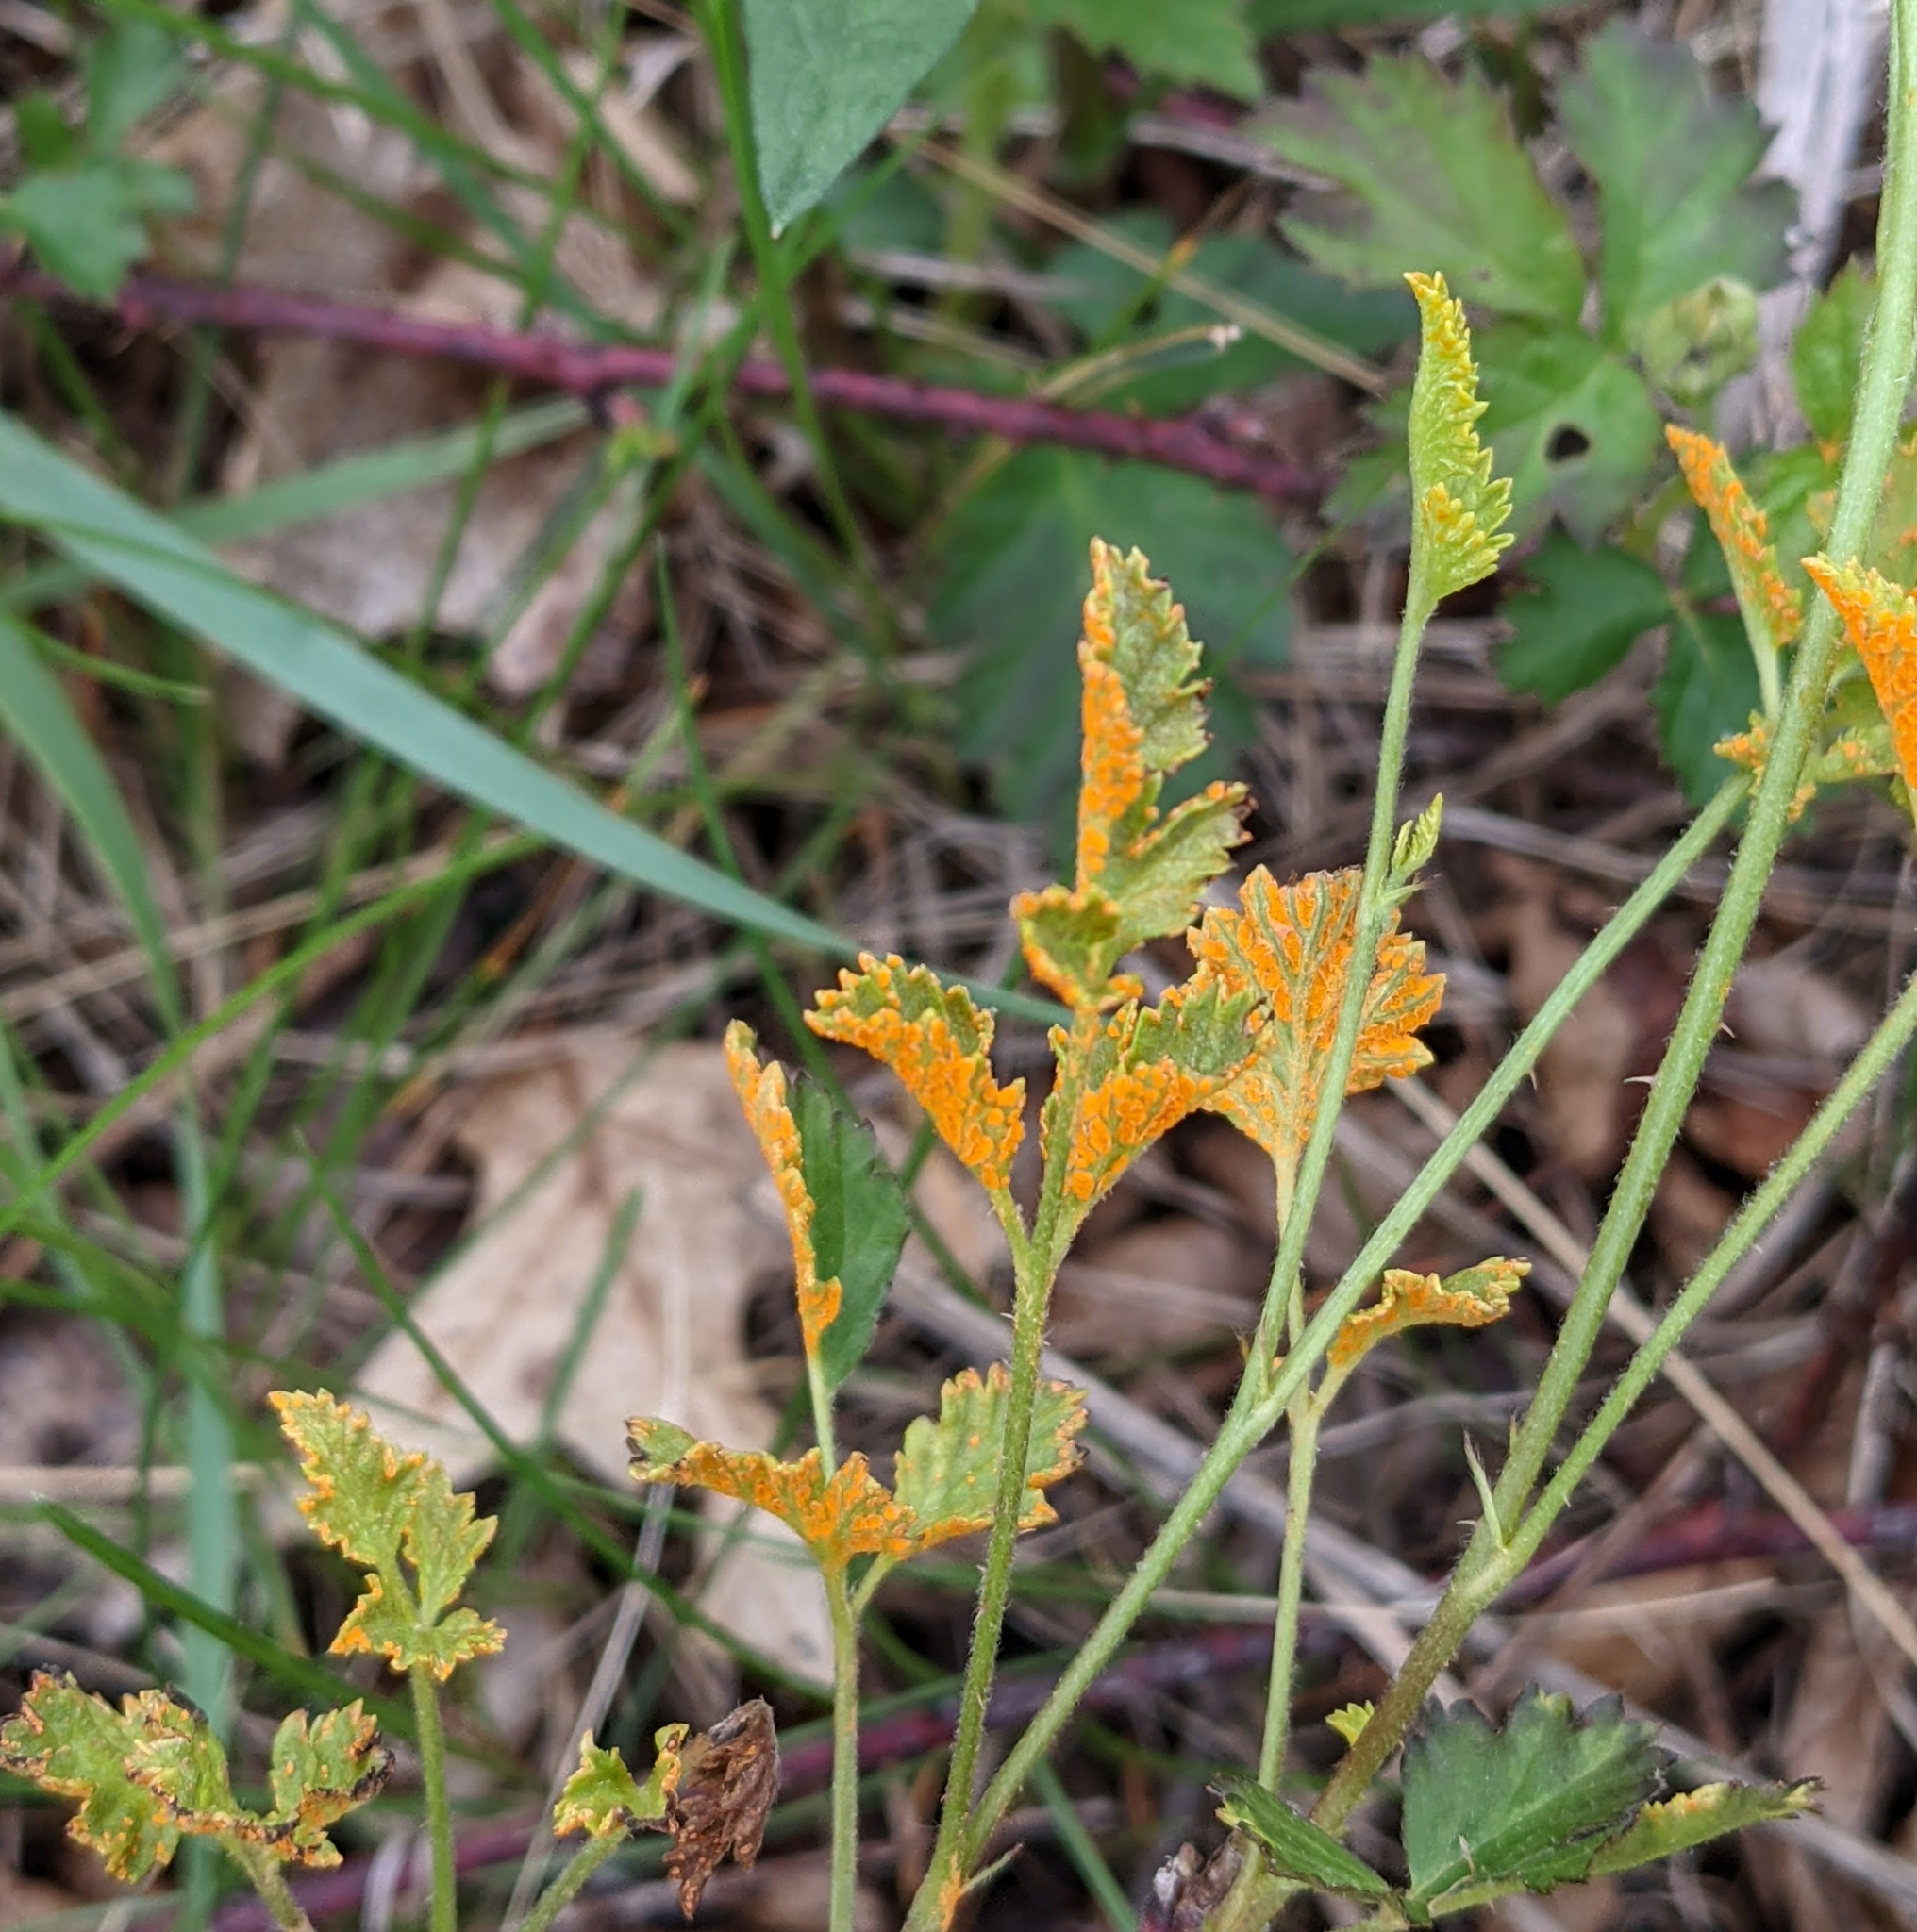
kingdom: Fungi
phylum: Basidiomycota
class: Pucciniomycetes
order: Pucciniales
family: Phragmidiaceae
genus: Arthuriomyces
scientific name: Arthuriomyces peckianus
